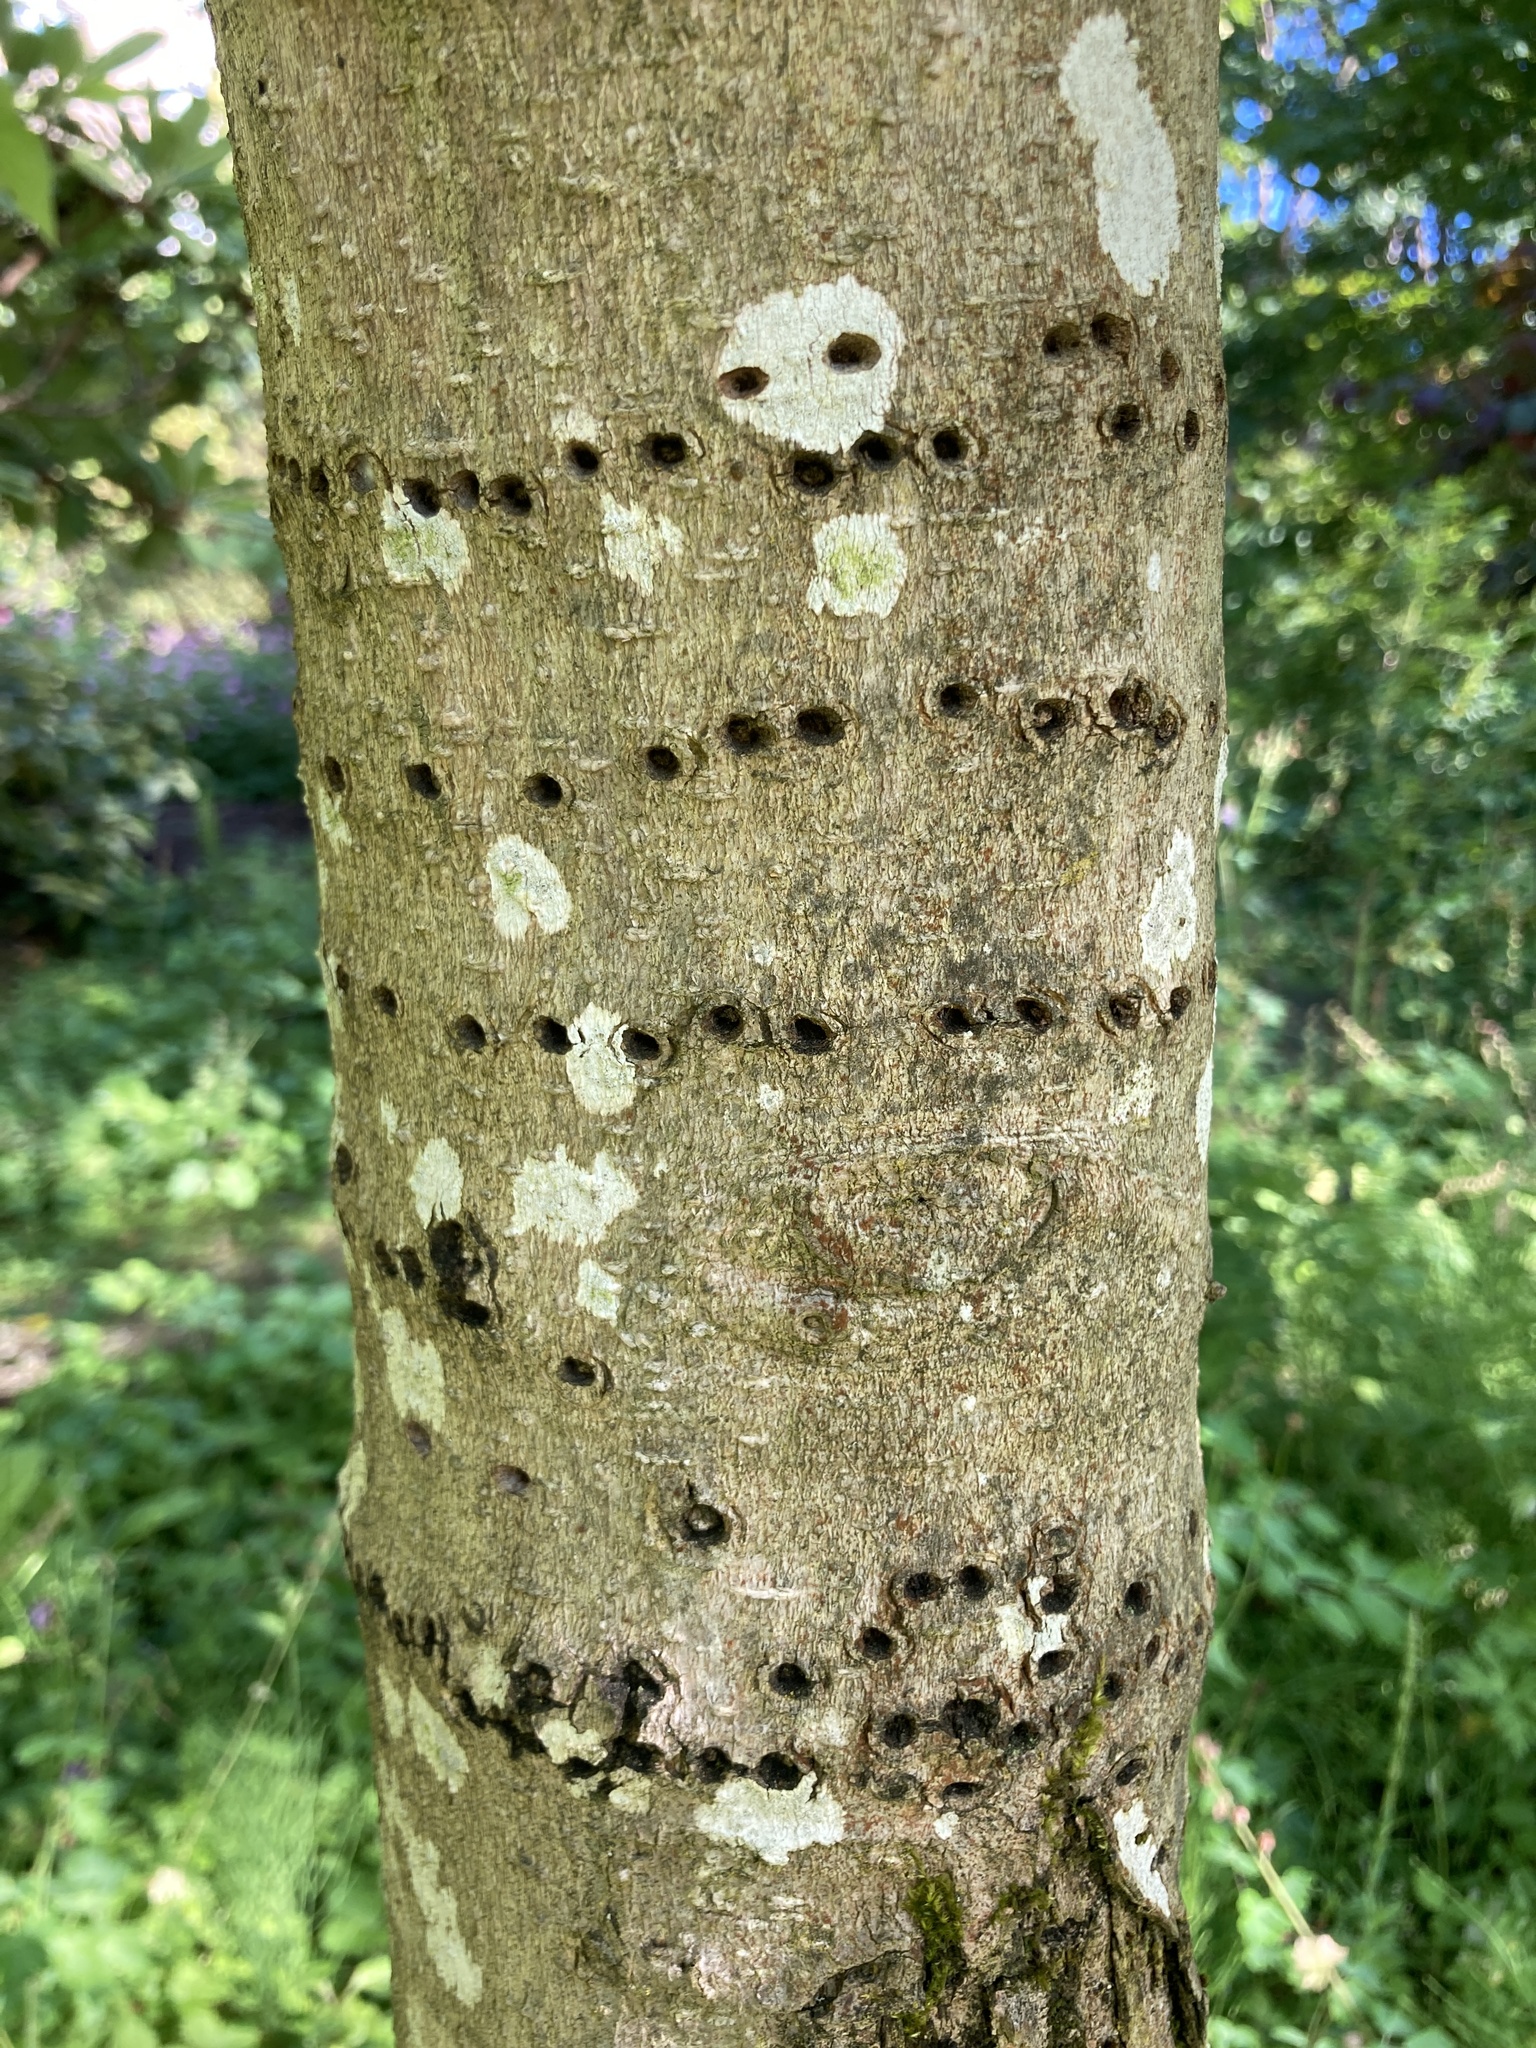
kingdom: Animalia
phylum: Chordata
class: Aves
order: Piciformes
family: Picidae
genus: Sphyrapicus
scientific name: Sphyrapicus ruber
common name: Red-breasted sapsucker
